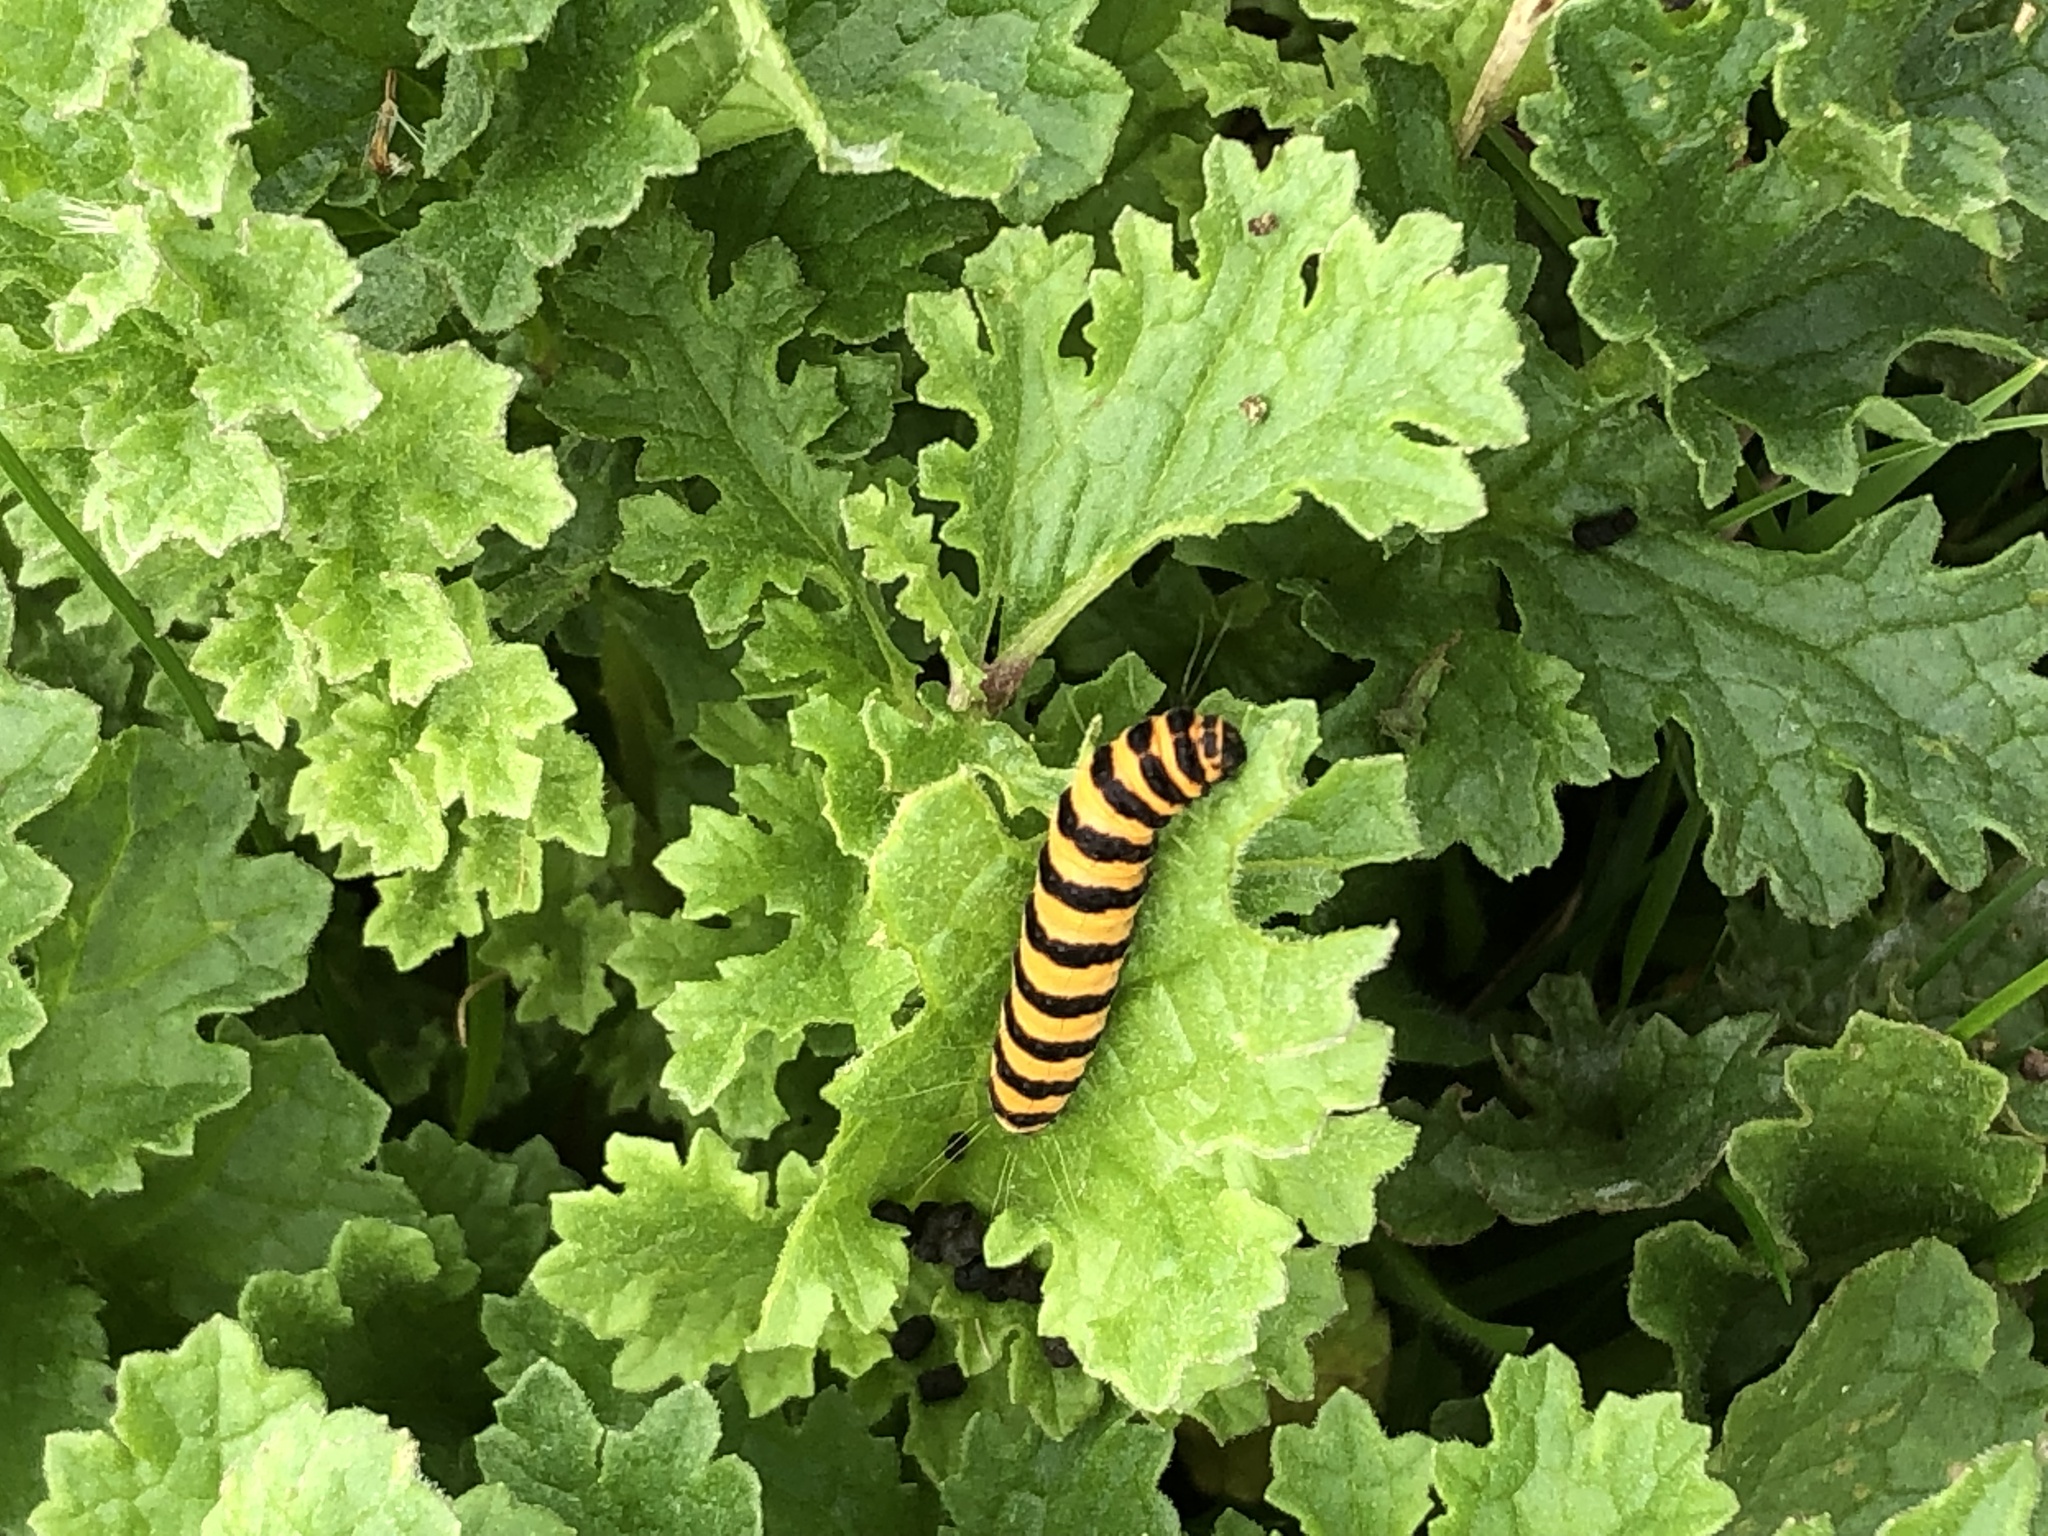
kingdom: Animalia
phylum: Arthropoda
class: Insecta
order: Lepidoptera
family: Erebidae
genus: Tyria
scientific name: Tyria jacobaeae
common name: Cinnabar
